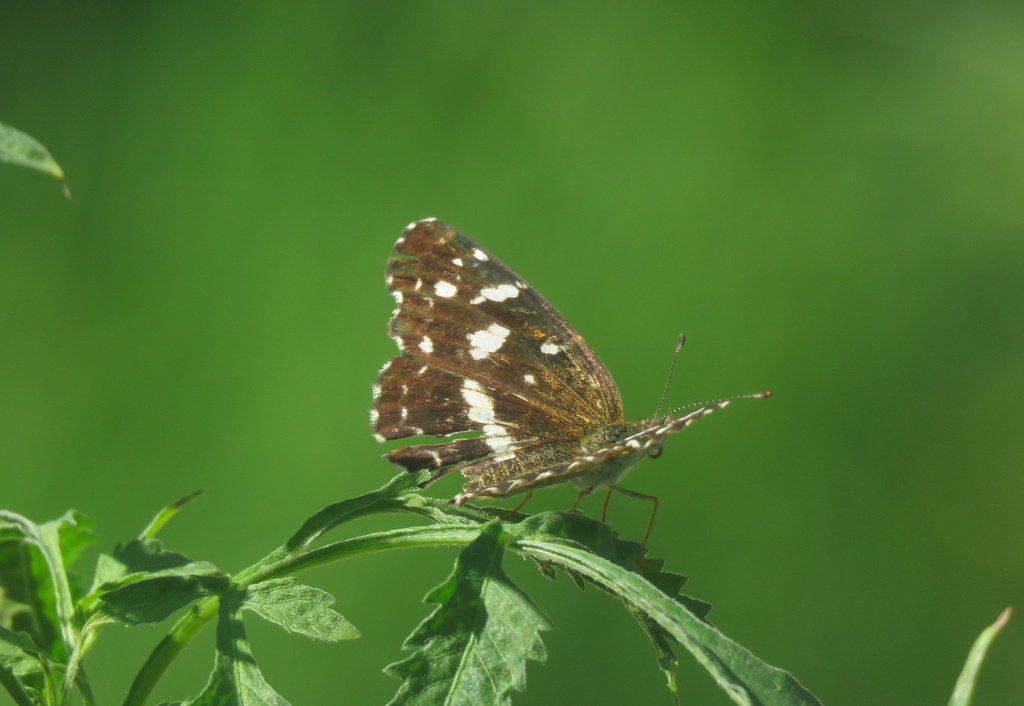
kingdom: Animalia
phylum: Arthropoda
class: Insecta
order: Lepidoptera
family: Nymphalidae
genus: Ortilia
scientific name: Ortilia ithra
